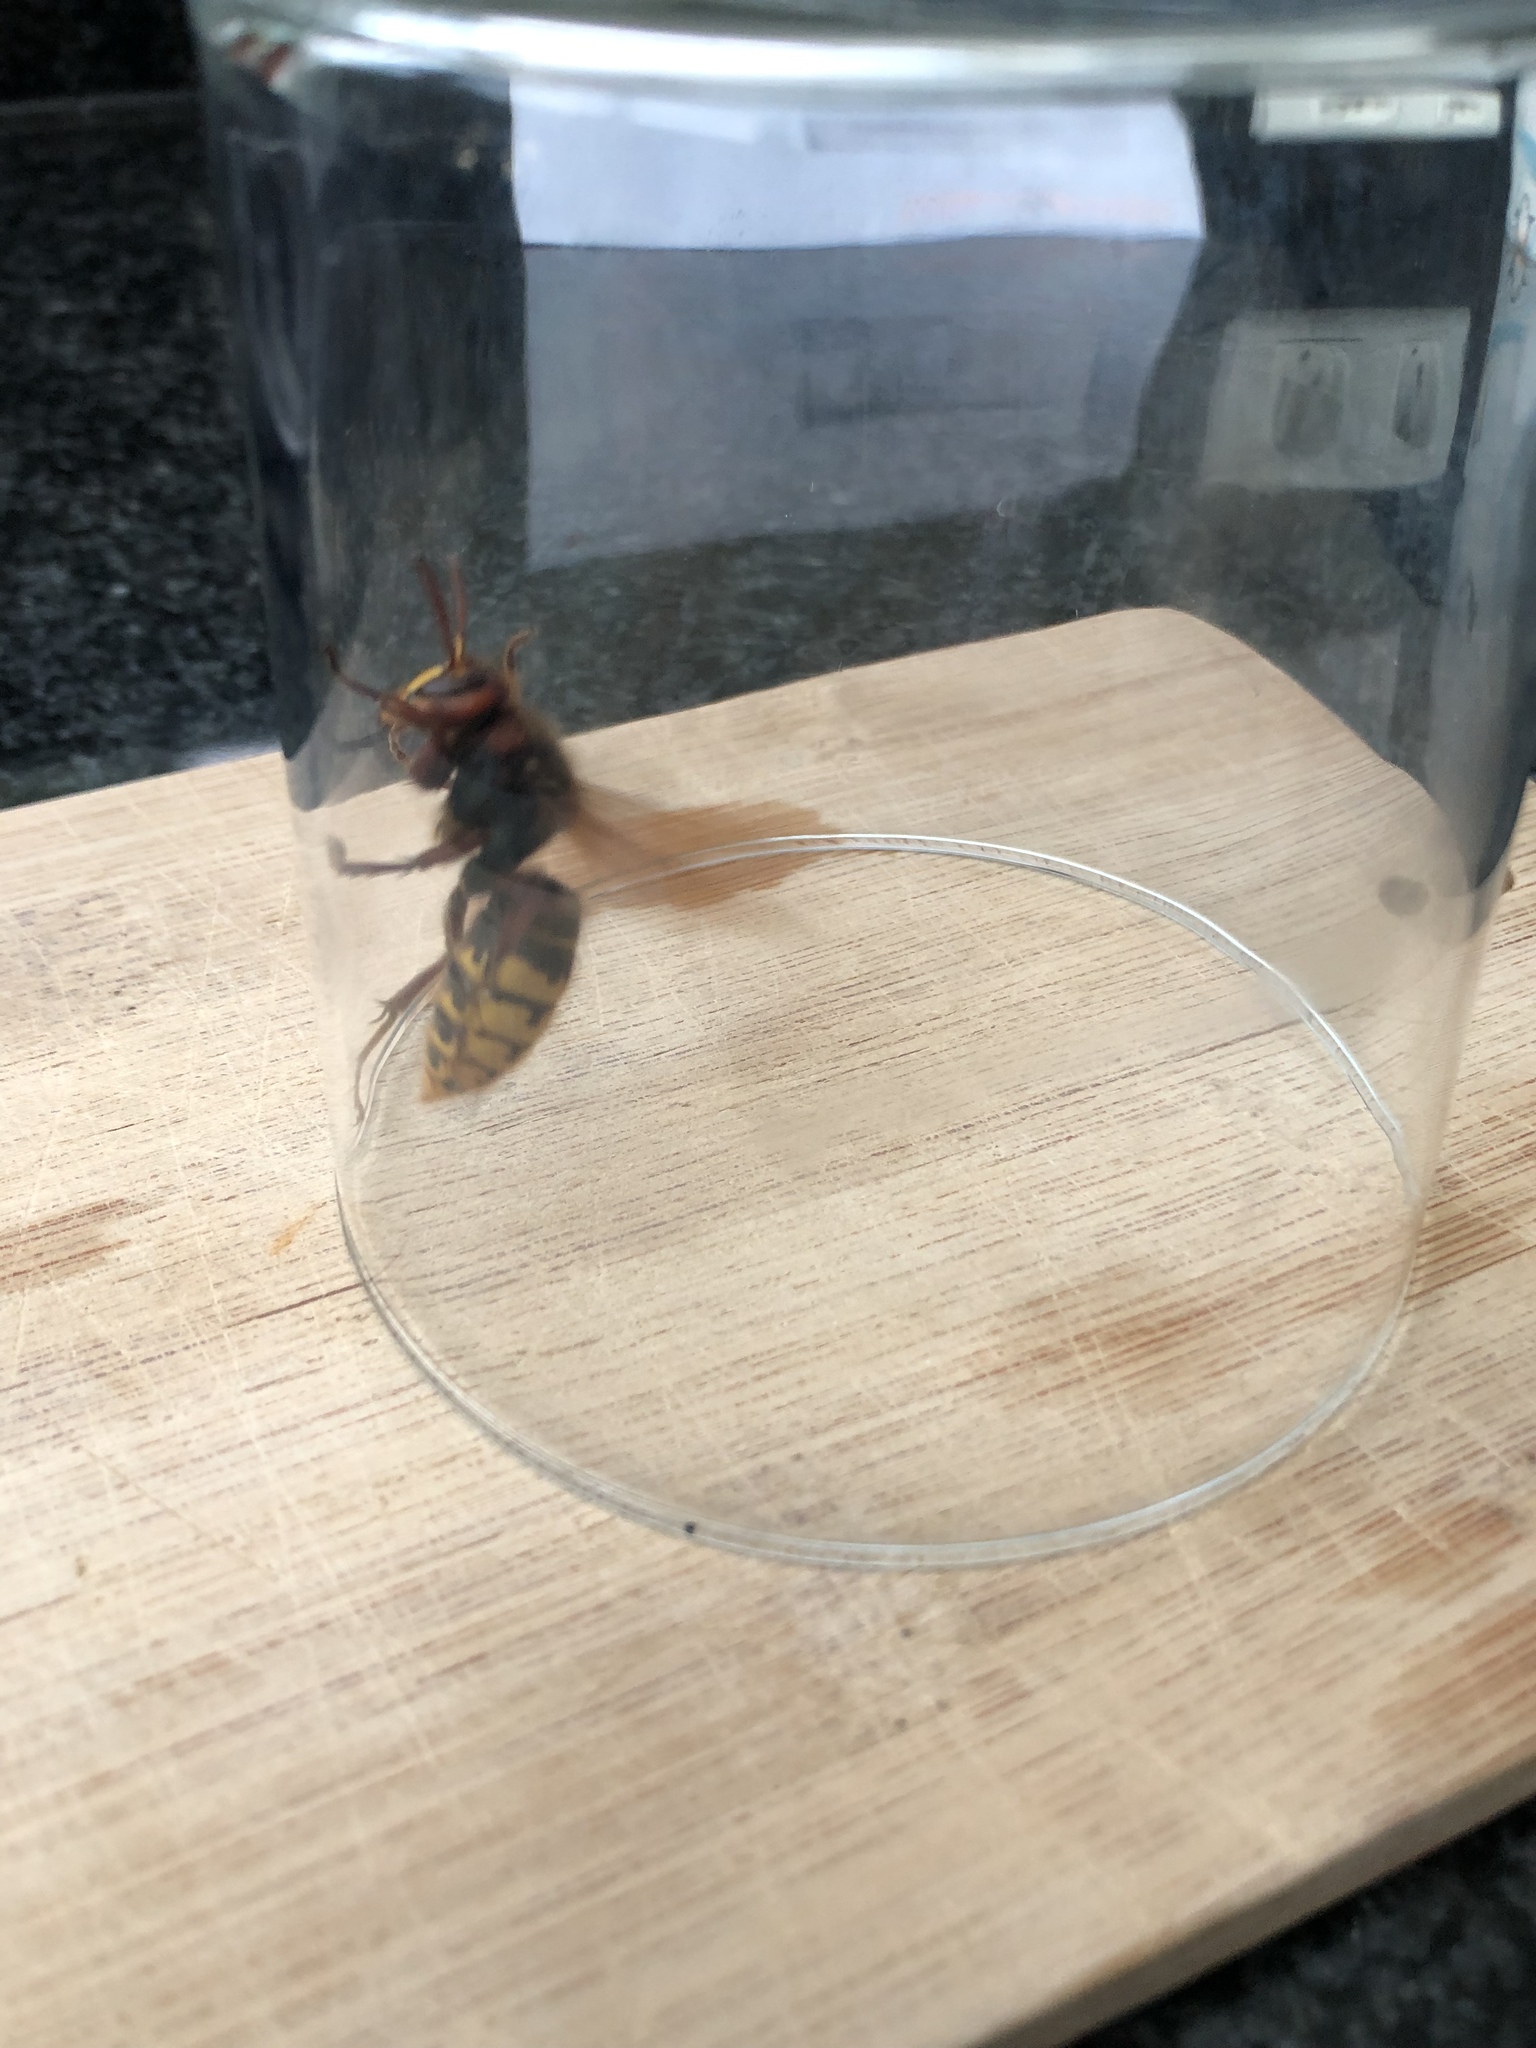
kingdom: Animalia
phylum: Arthropoda
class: Insecta
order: Hymenoptera
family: Vespidae
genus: Vespa
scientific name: Vespa crabro
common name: Hornet
